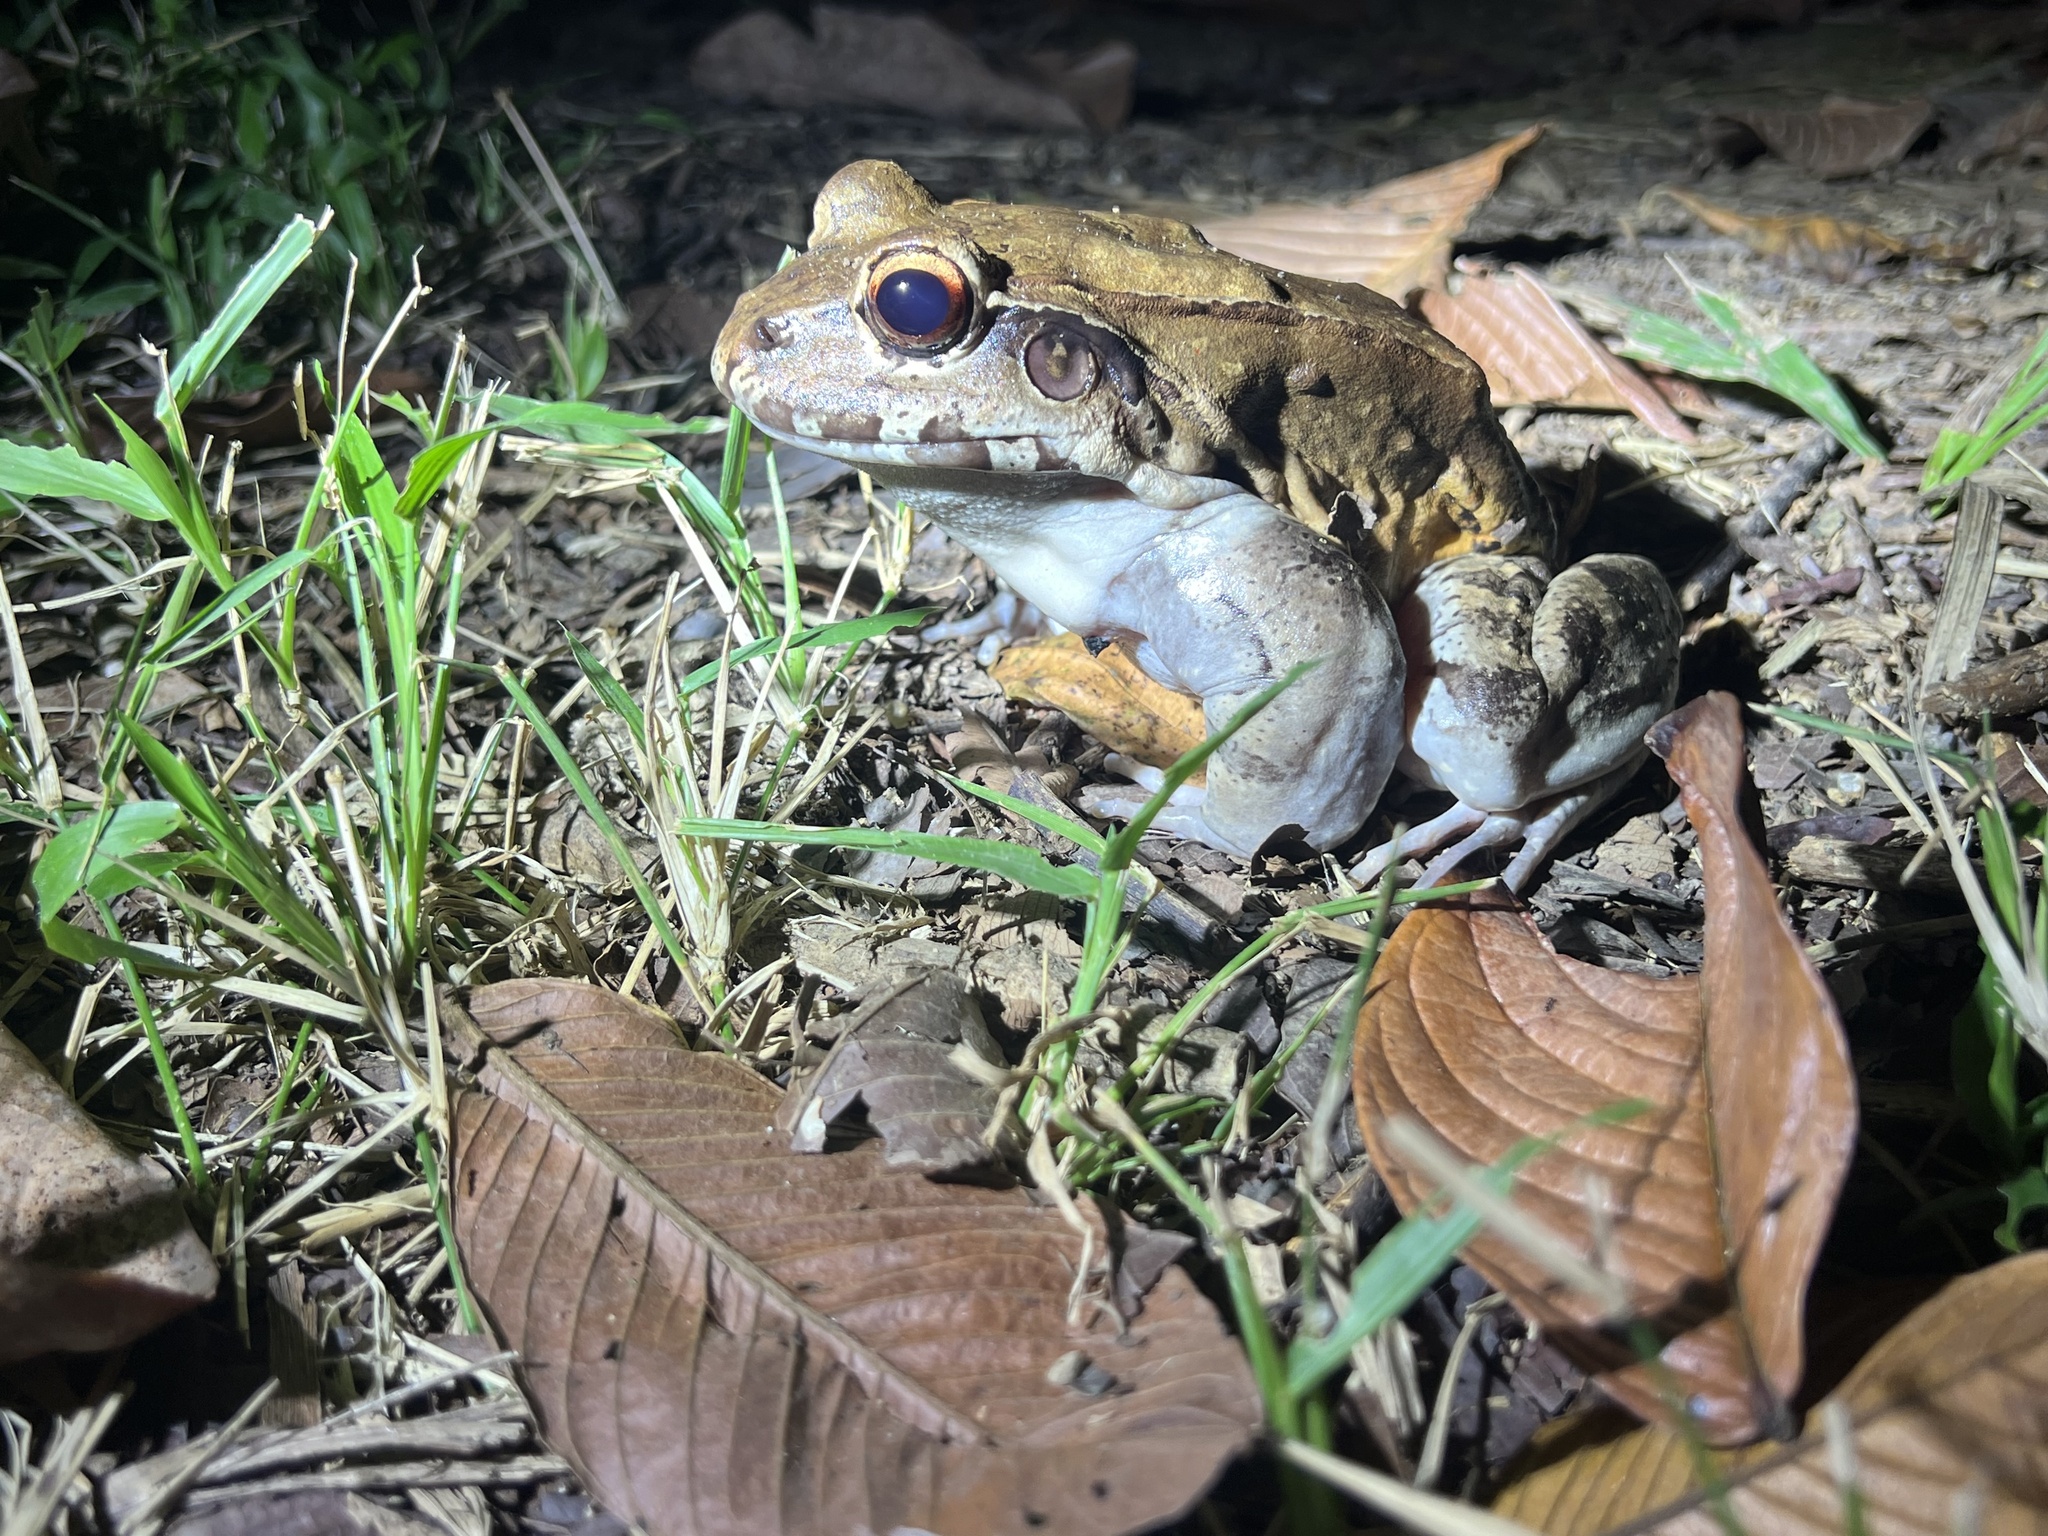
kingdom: Animalia
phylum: Chordata
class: Amphibia
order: Anura
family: Leptodactylidae
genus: Leptodactylus
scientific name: Leptodactylus savagei
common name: Savage's thin-toed frog
